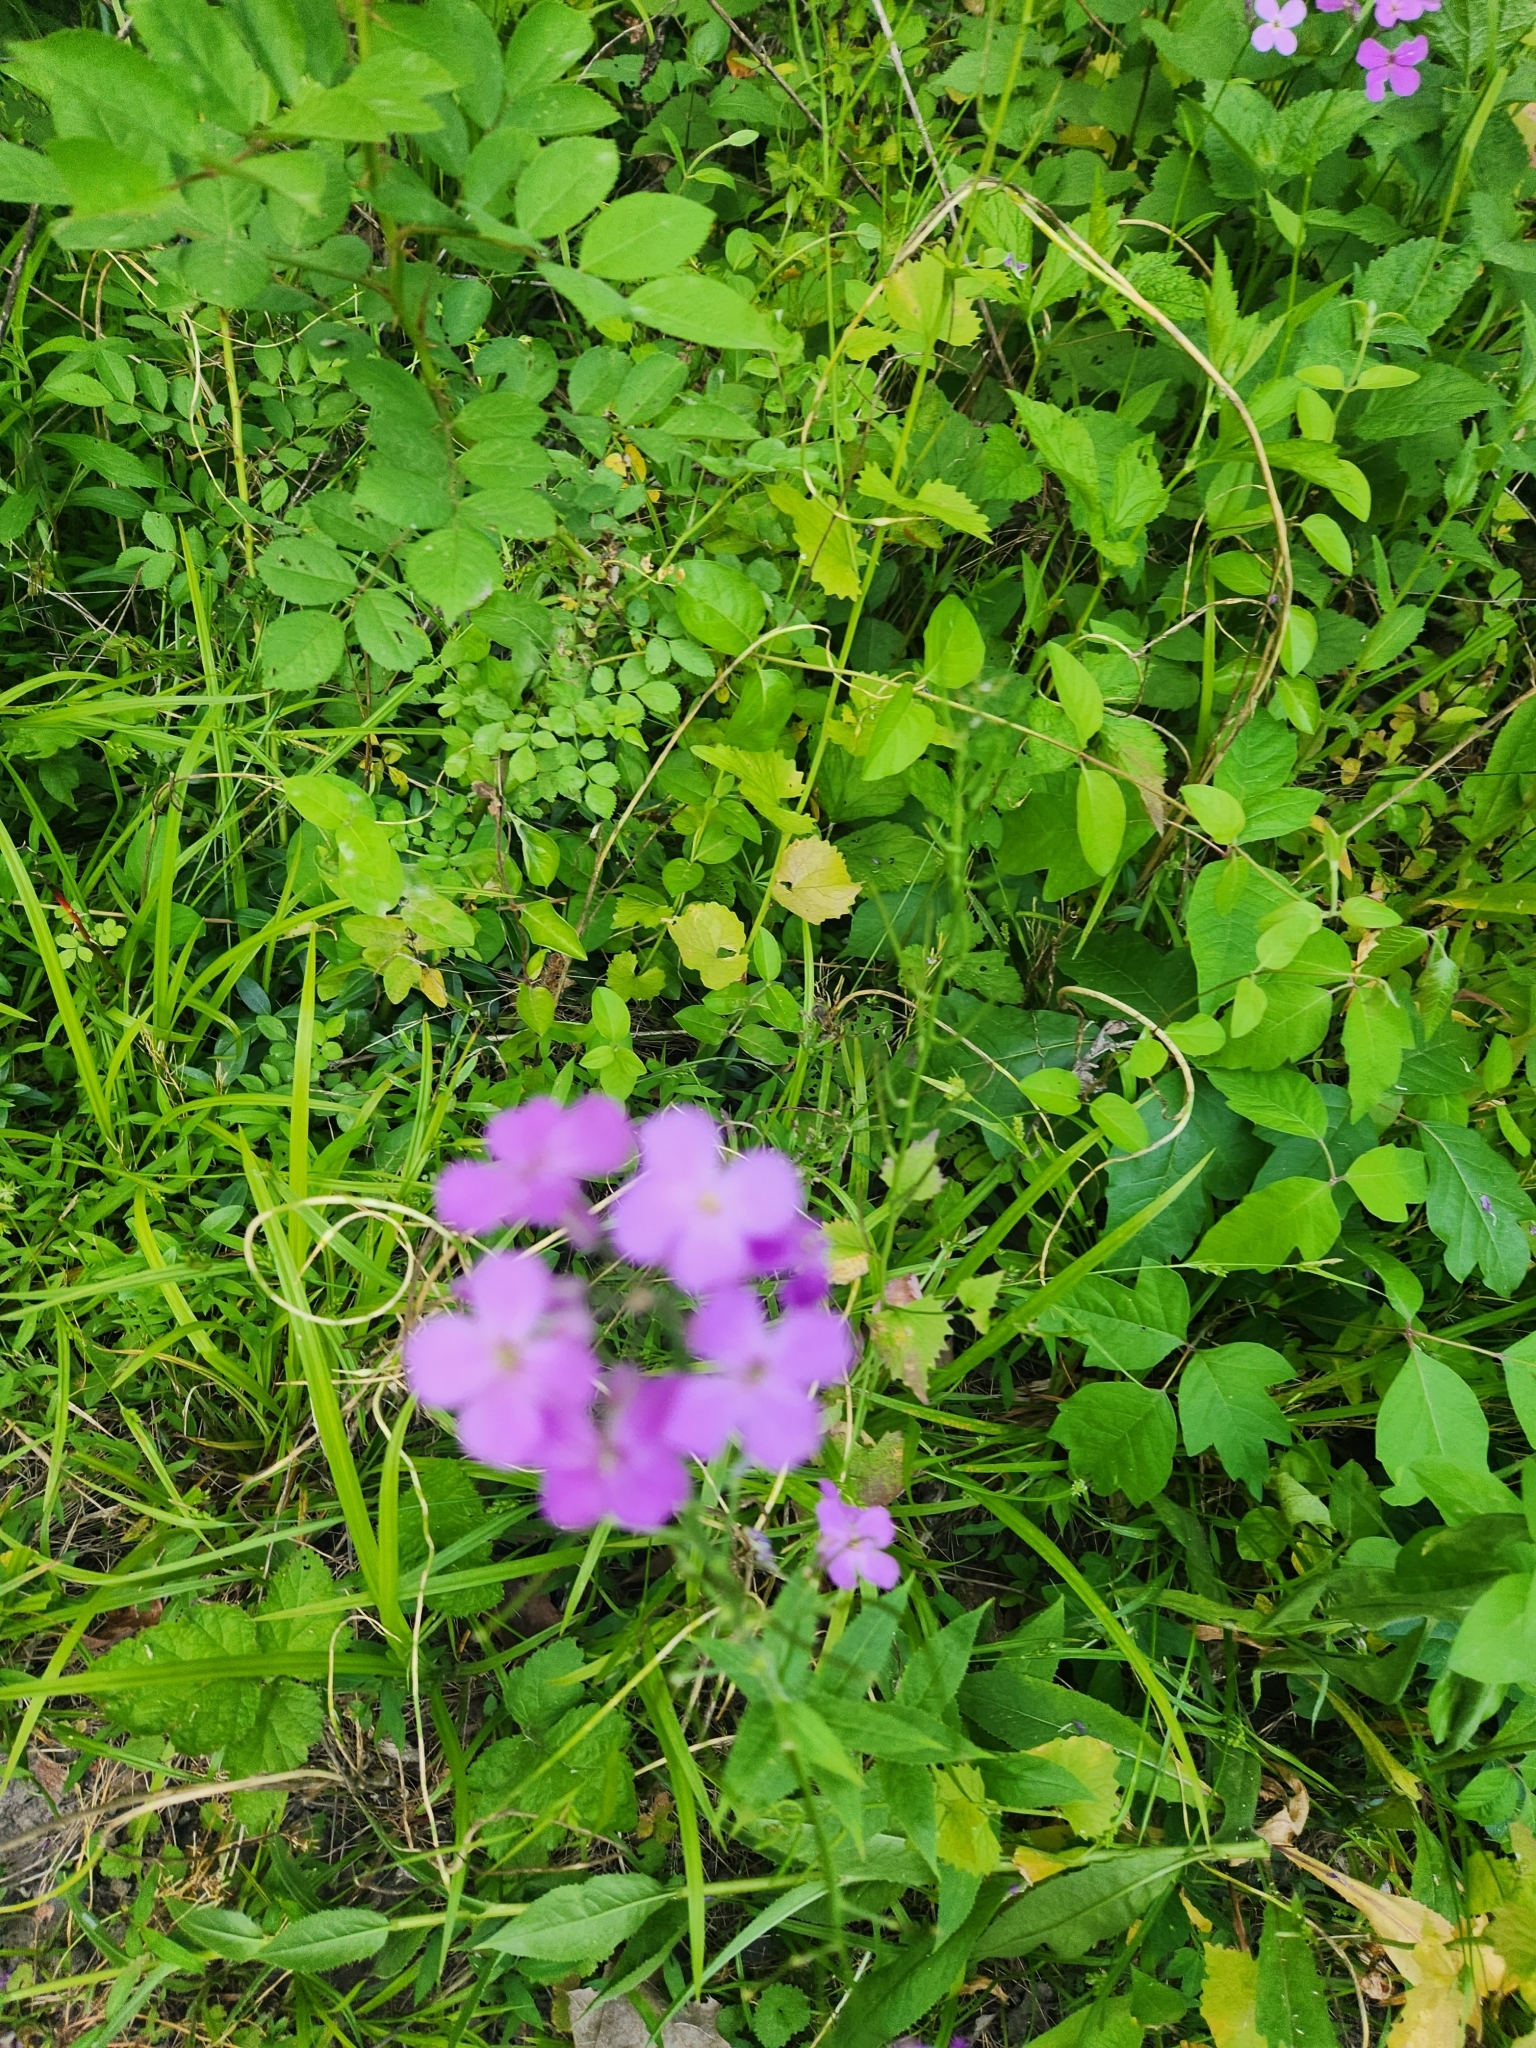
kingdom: Plantae
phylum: Tracheophyta
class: Magnoliopsida
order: Brassicales
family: Brassicaceae
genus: Hesperis
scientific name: Hesperis matronalis
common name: Dame's-violet
